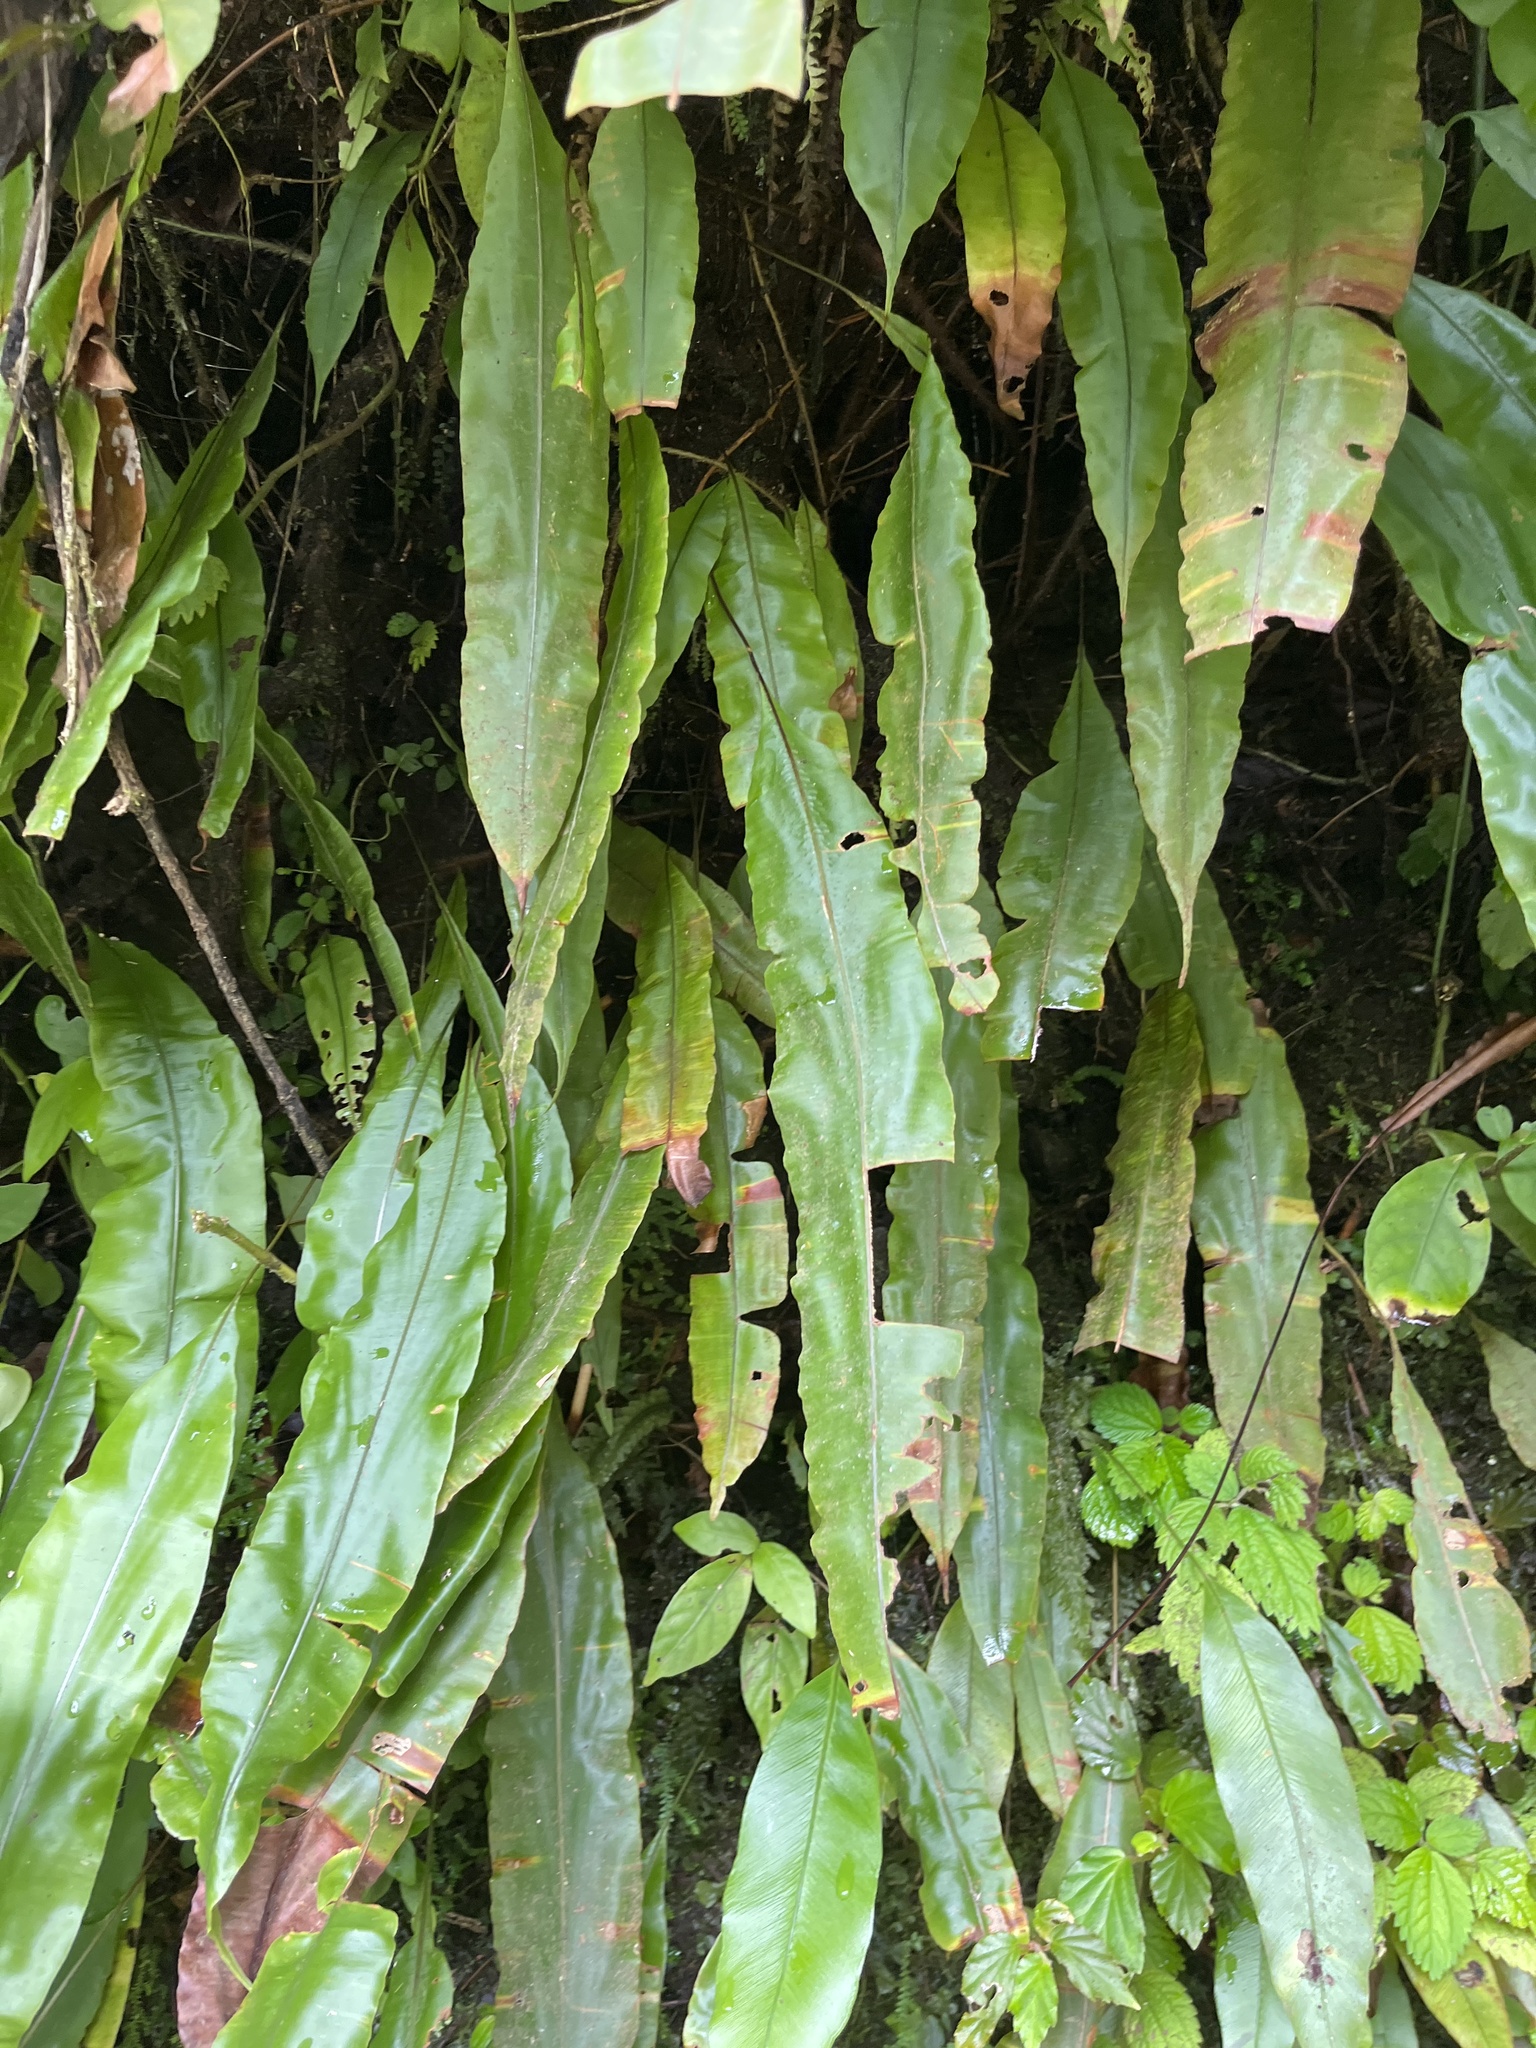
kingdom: Plantae
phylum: Tracheophyta
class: Polypodiopsida
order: Polypodiales
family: Oleandraceae
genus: Oleandra
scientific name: Oleandra articulata
